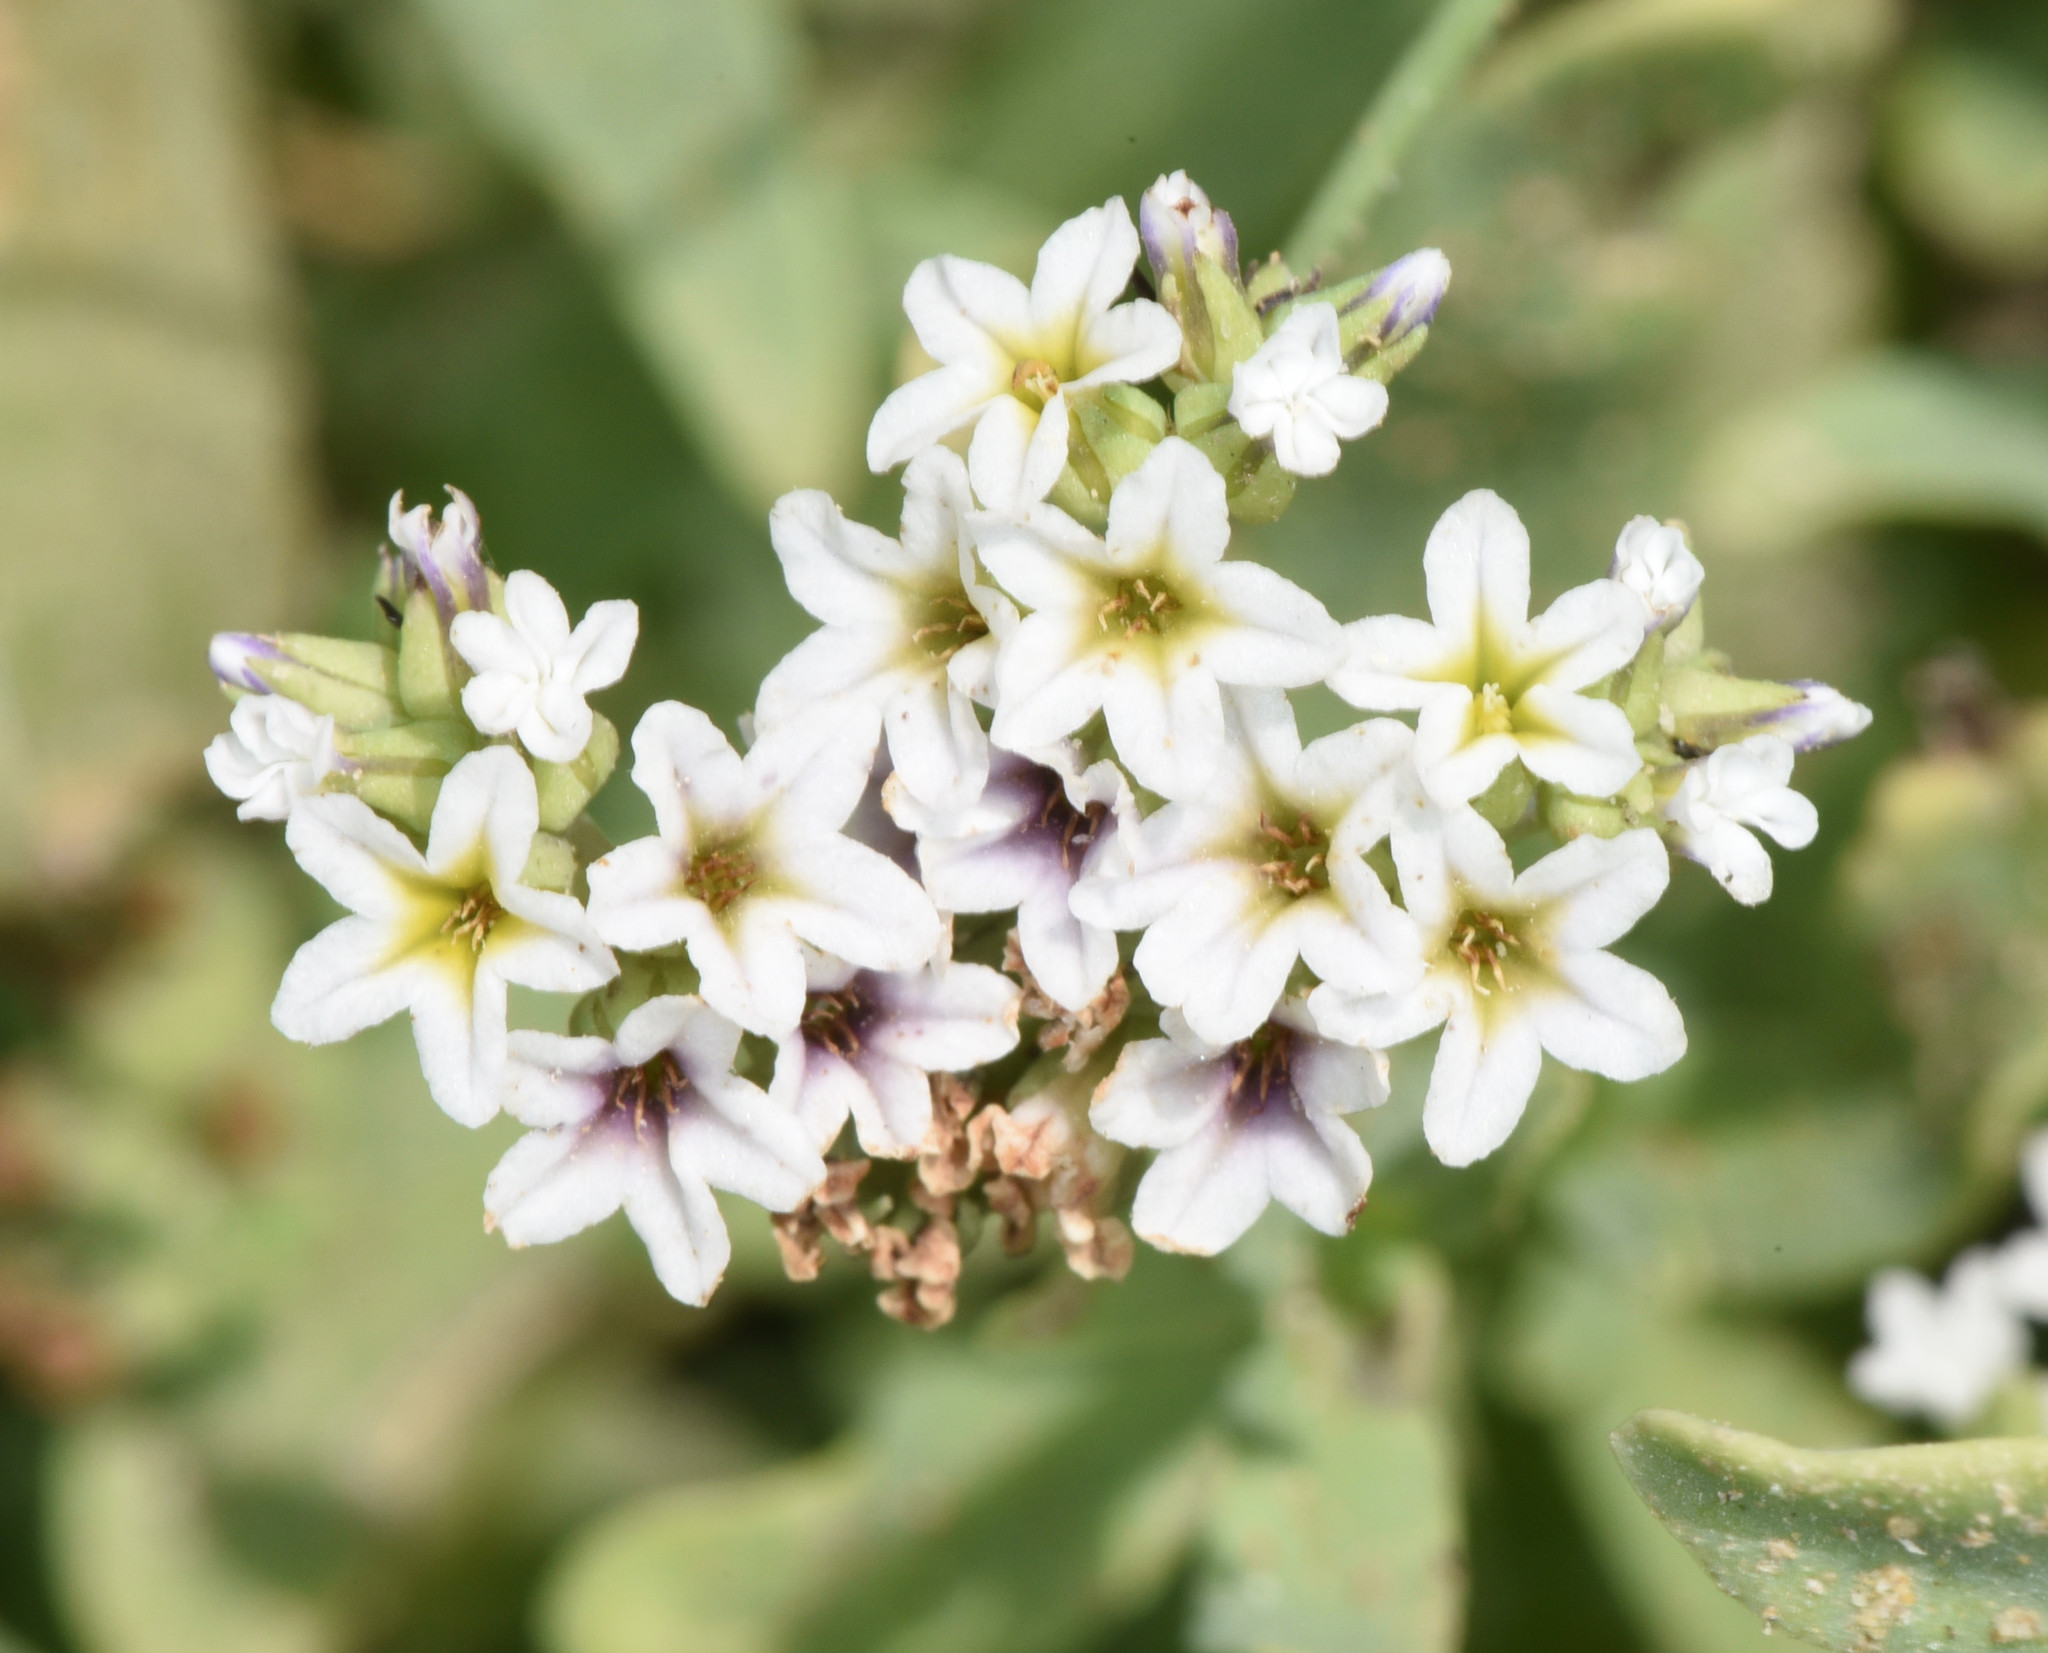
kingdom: Plantae
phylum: Tracheophyta
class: Magnoliopsida
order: Boraginales
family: Heliotropiaceae
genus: Heliotropium
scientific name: Heliotropium curassavicum
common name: Seaside heliotrope
